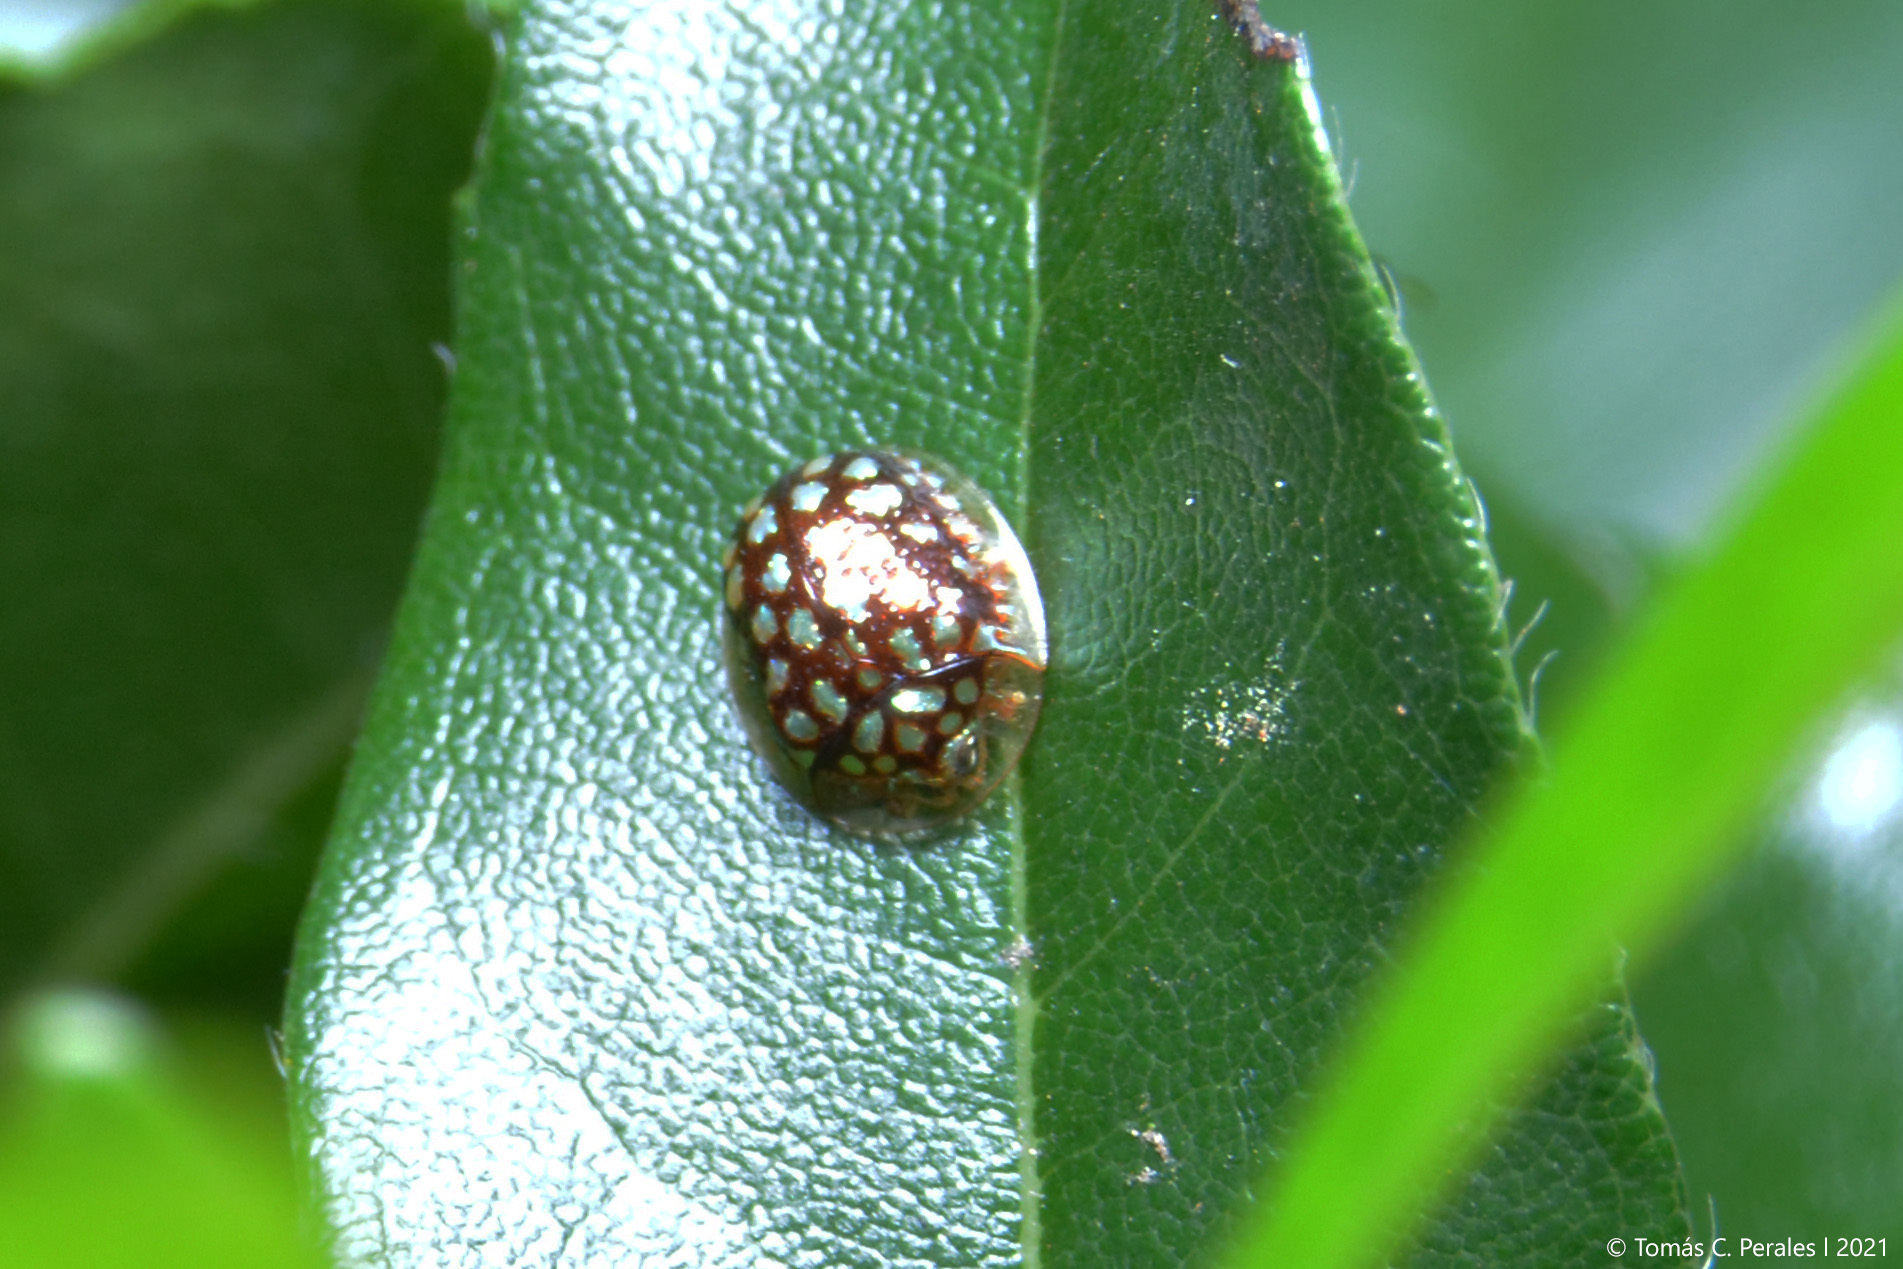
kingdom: Animalia
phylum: Arthropoda
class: Insecta
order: Coleoptera
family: Chrysomelidae
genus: Charidotis
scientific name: Charidotis auroguttata
